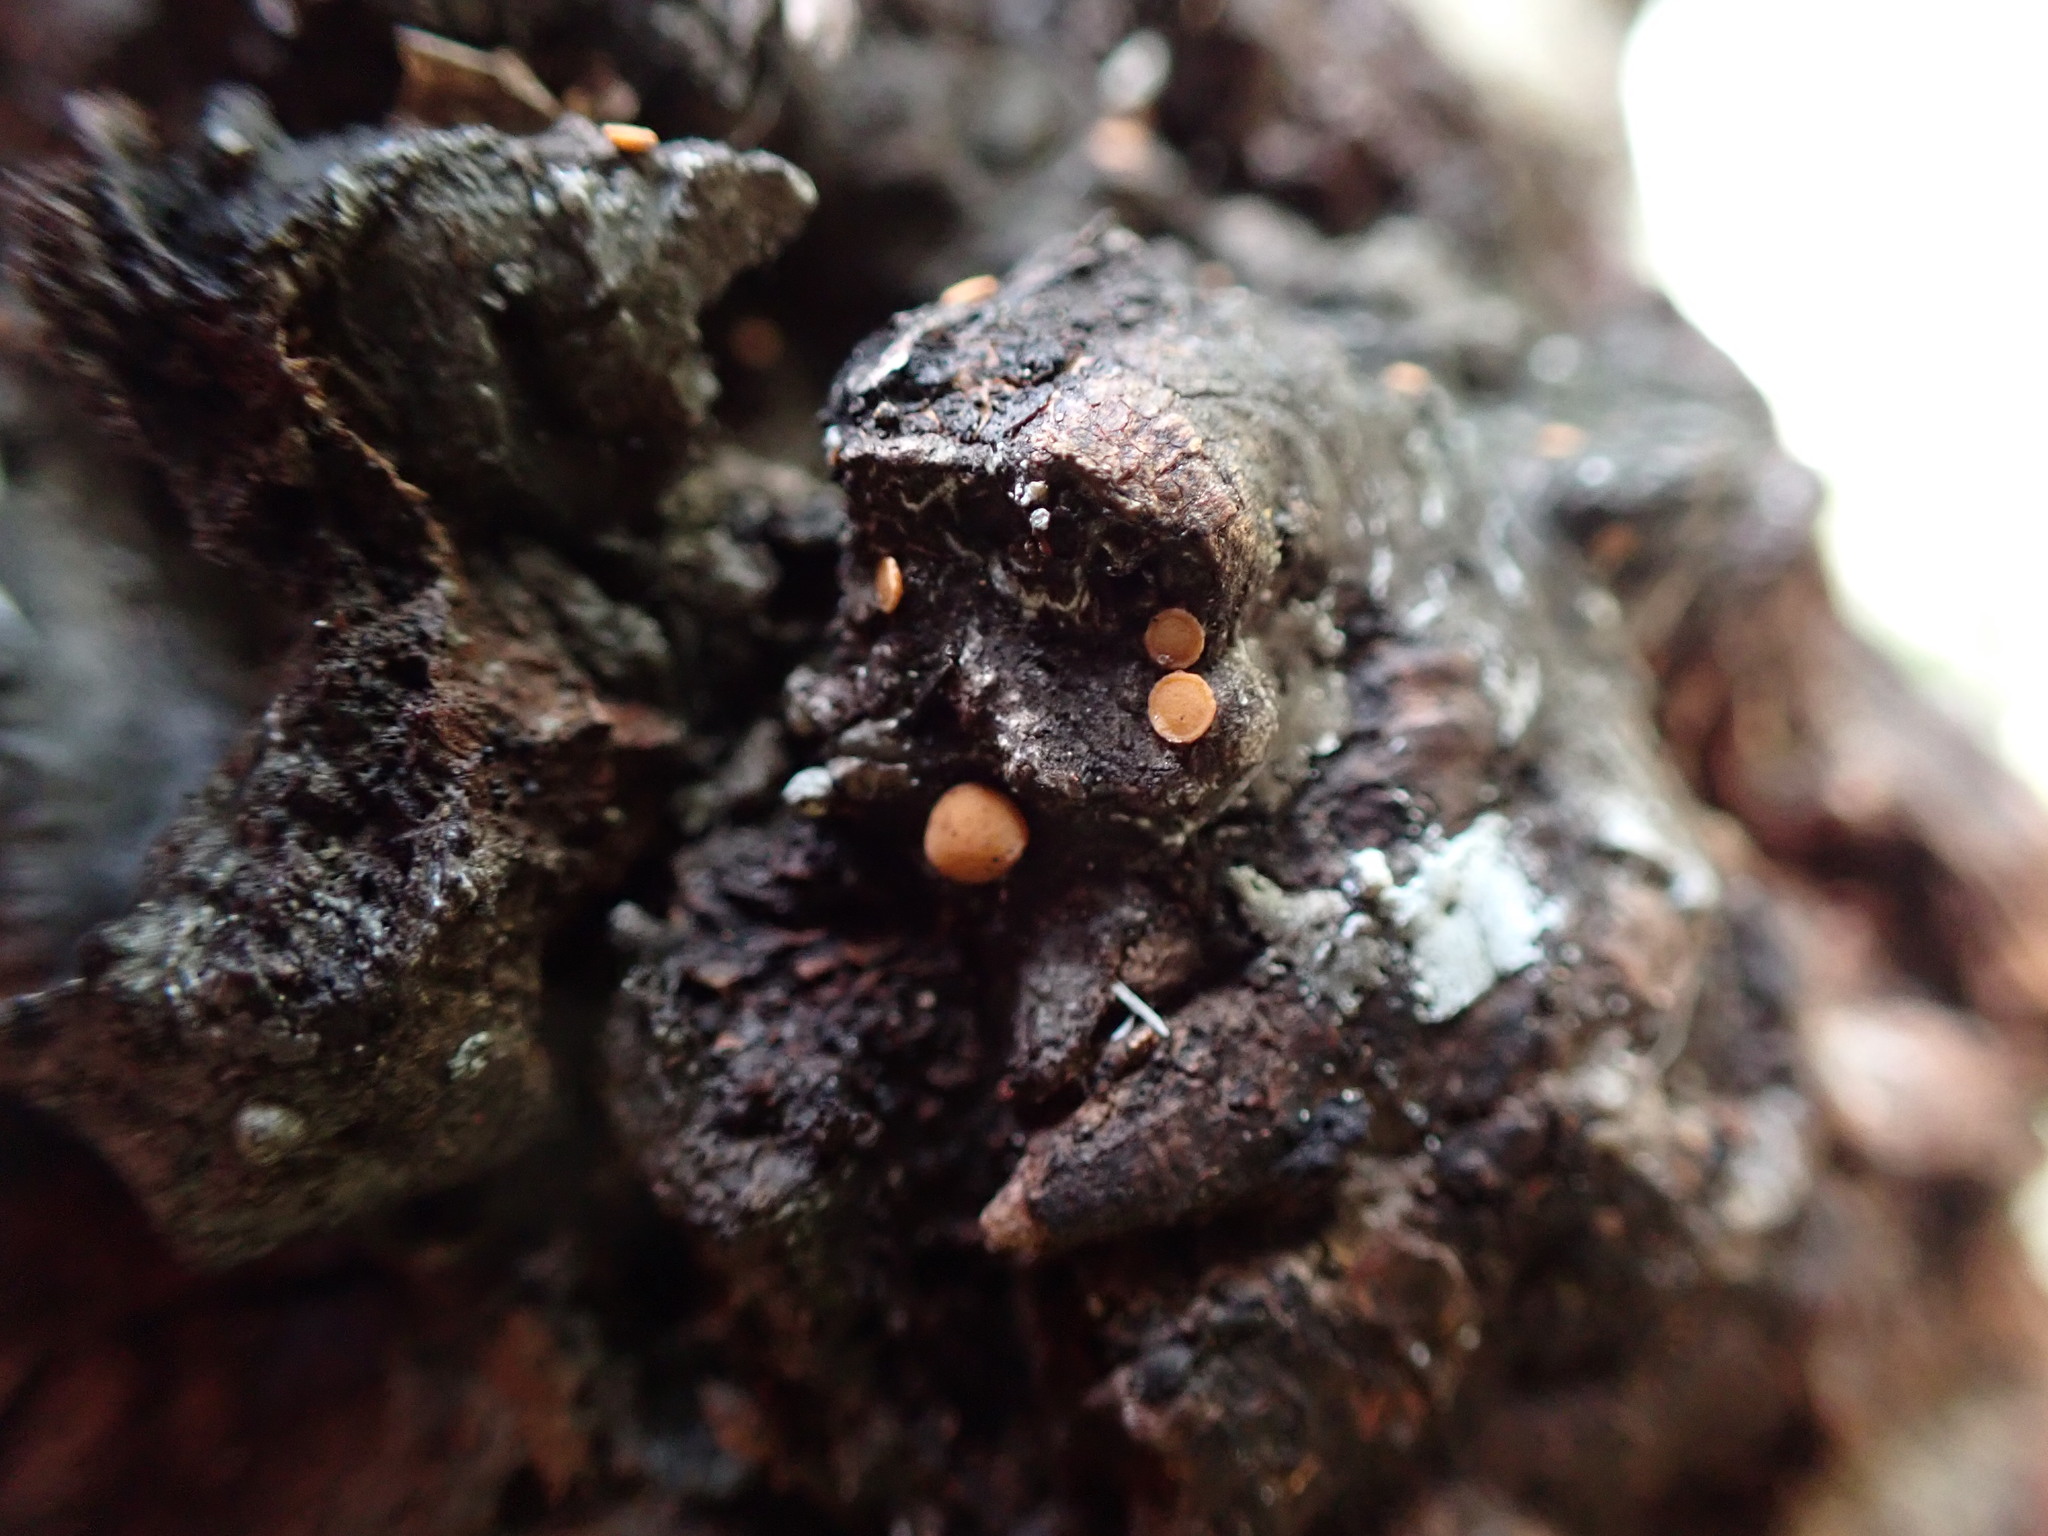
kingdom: Fungi
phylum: Ascomycota
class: Sareomycetes
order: Sareales
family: Sareaceae
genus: Sarea
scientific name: Sarea resinae
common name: Sarea lichen
